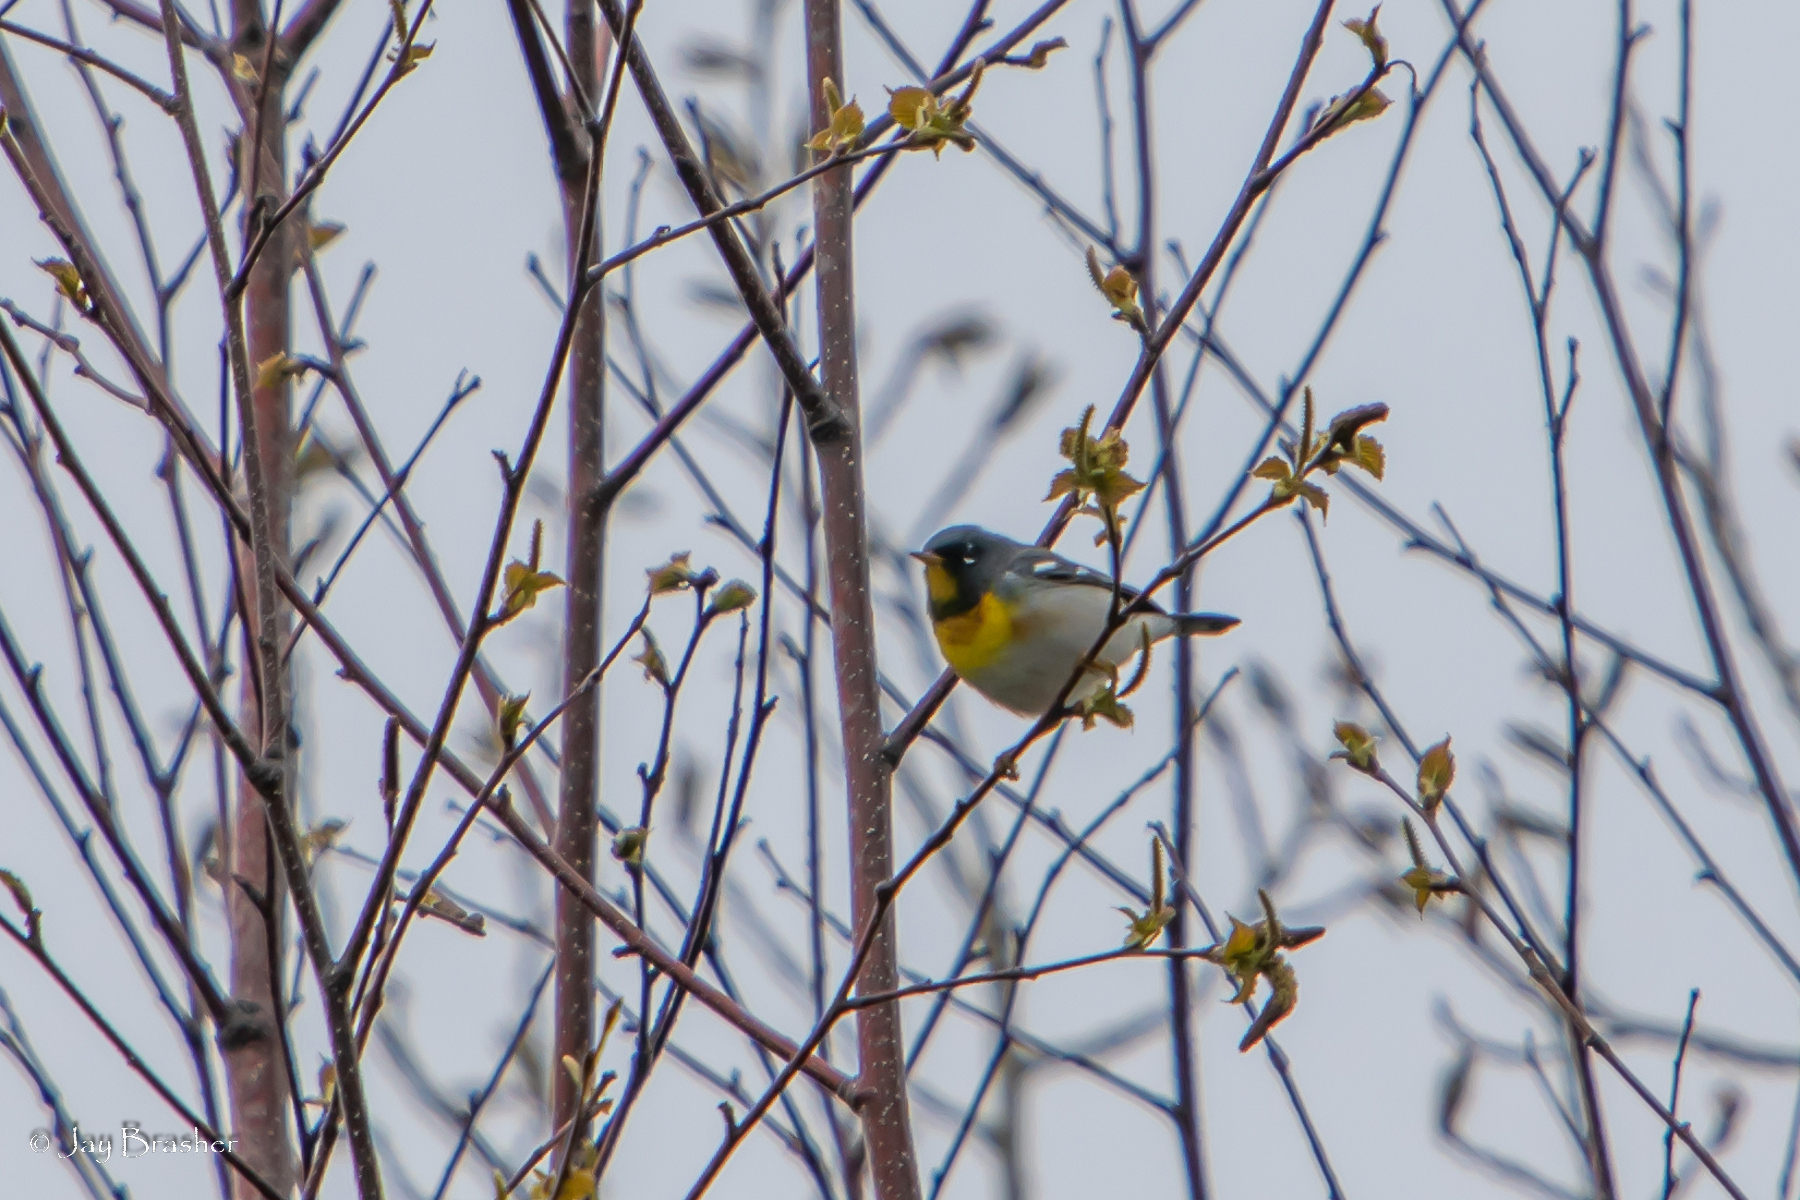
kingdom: Animalia
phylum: Chordata
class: Aves
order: Passeriformes
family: Parulidae
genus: Setophaga
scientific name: Setophaga americana
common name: Northern parula
